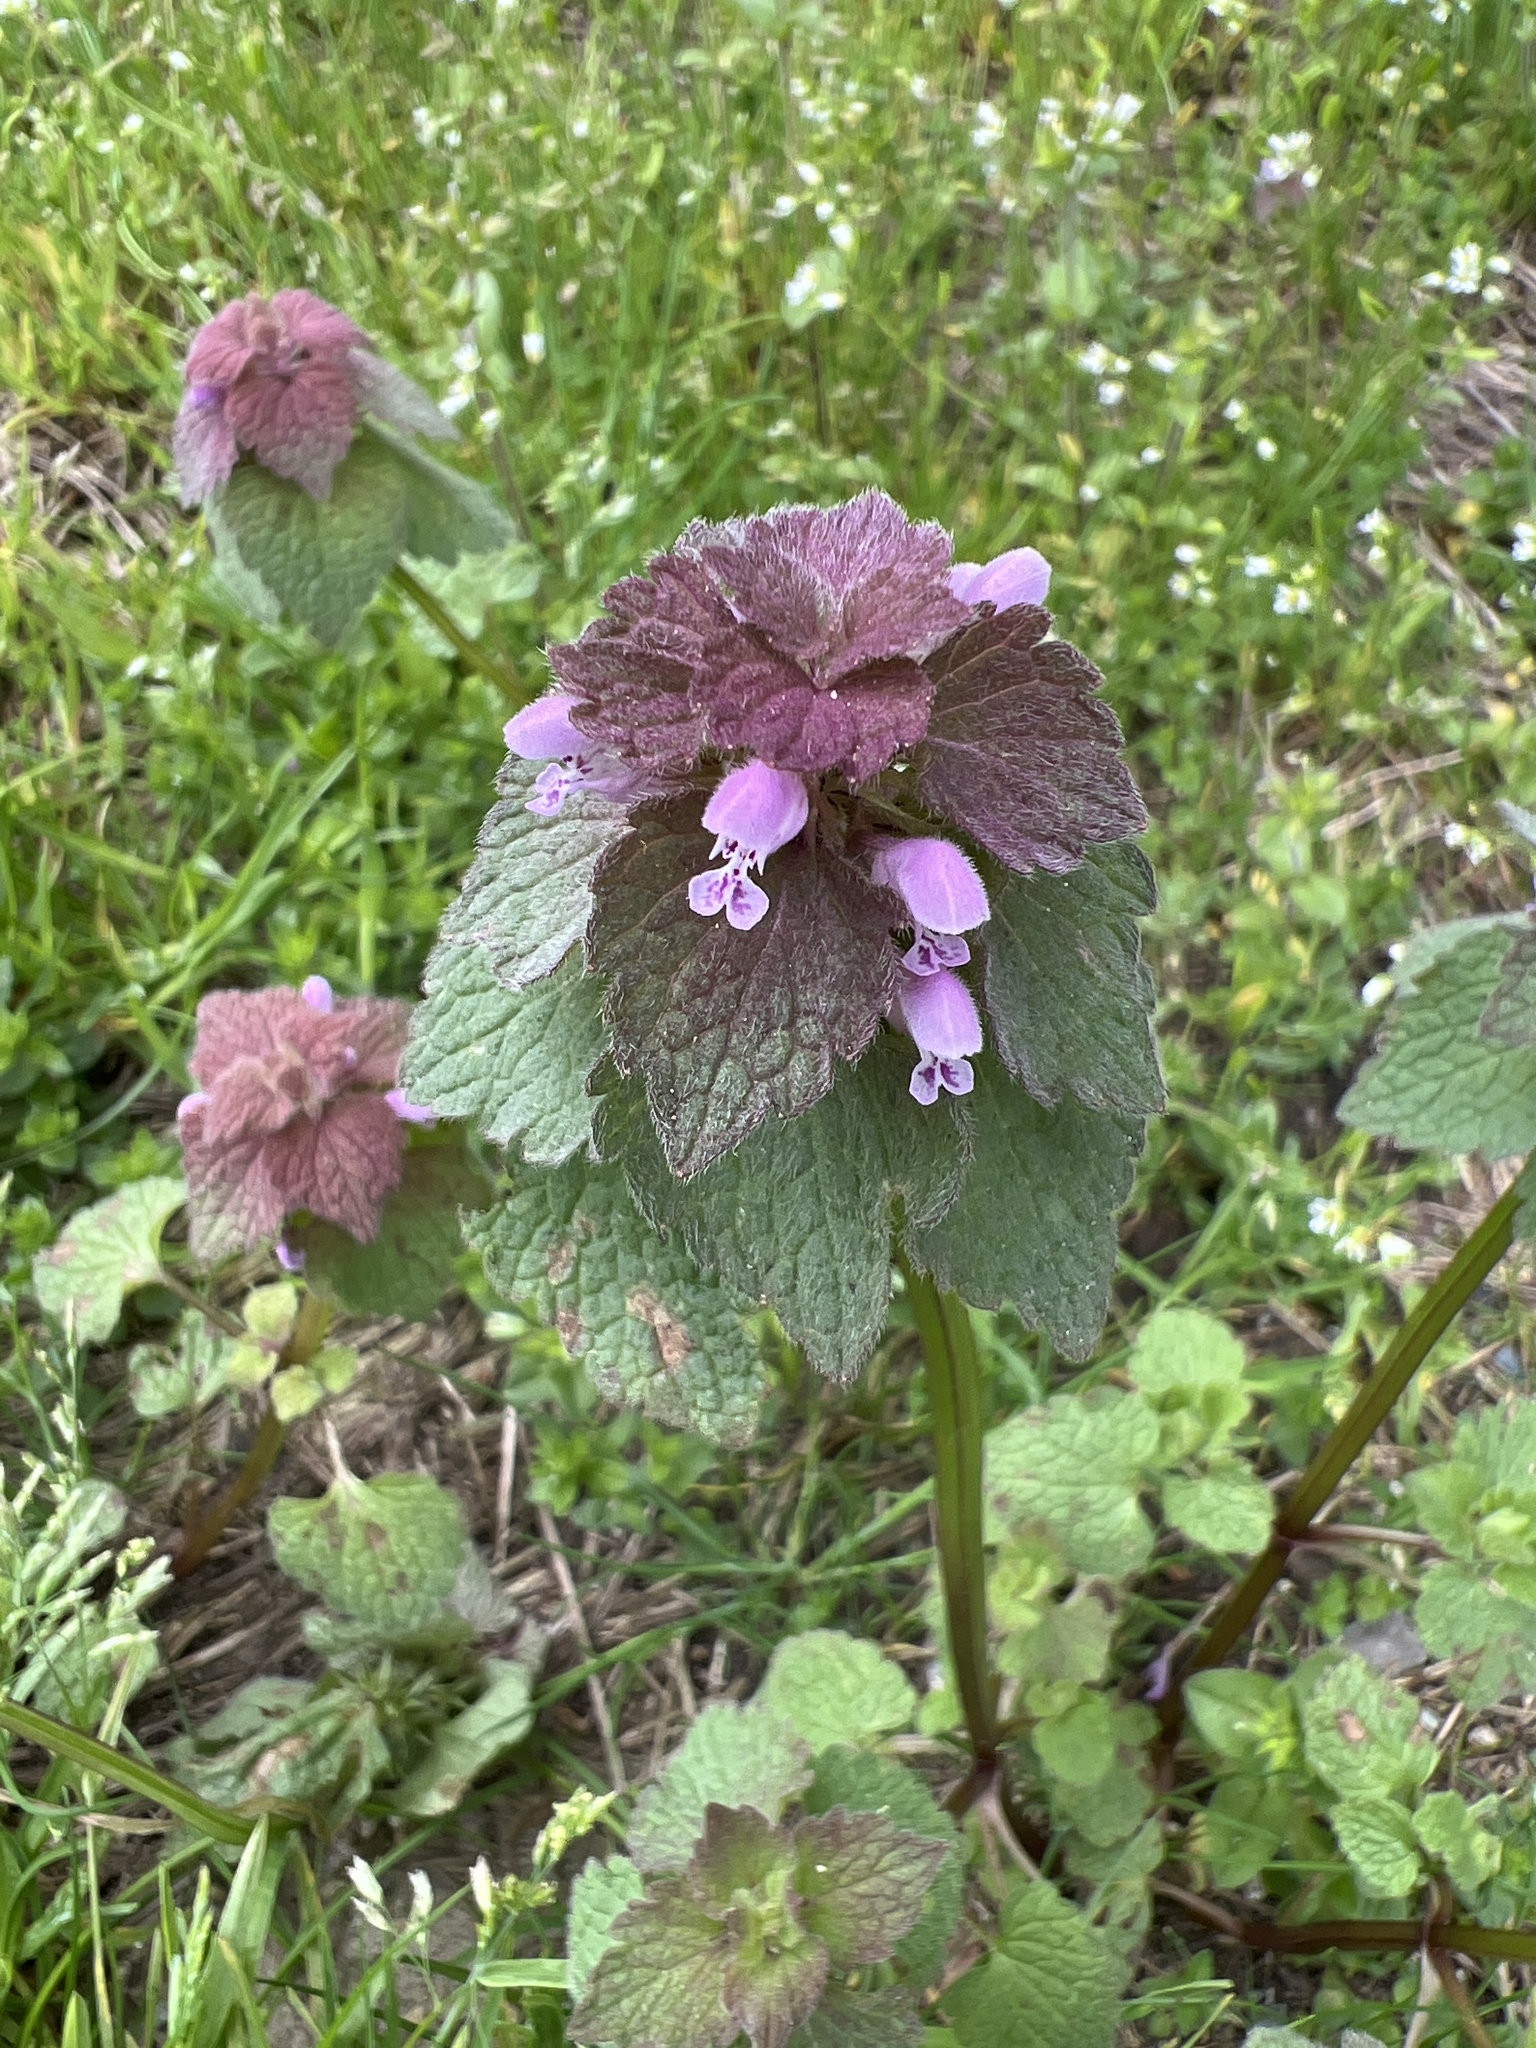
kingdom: Plantae
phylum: Tracheophyta
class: Magnoliopsida
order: Lamiales
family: Lamiaceae
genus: Lamium
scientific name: Lamium purpureum
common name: Red dead-nettle
